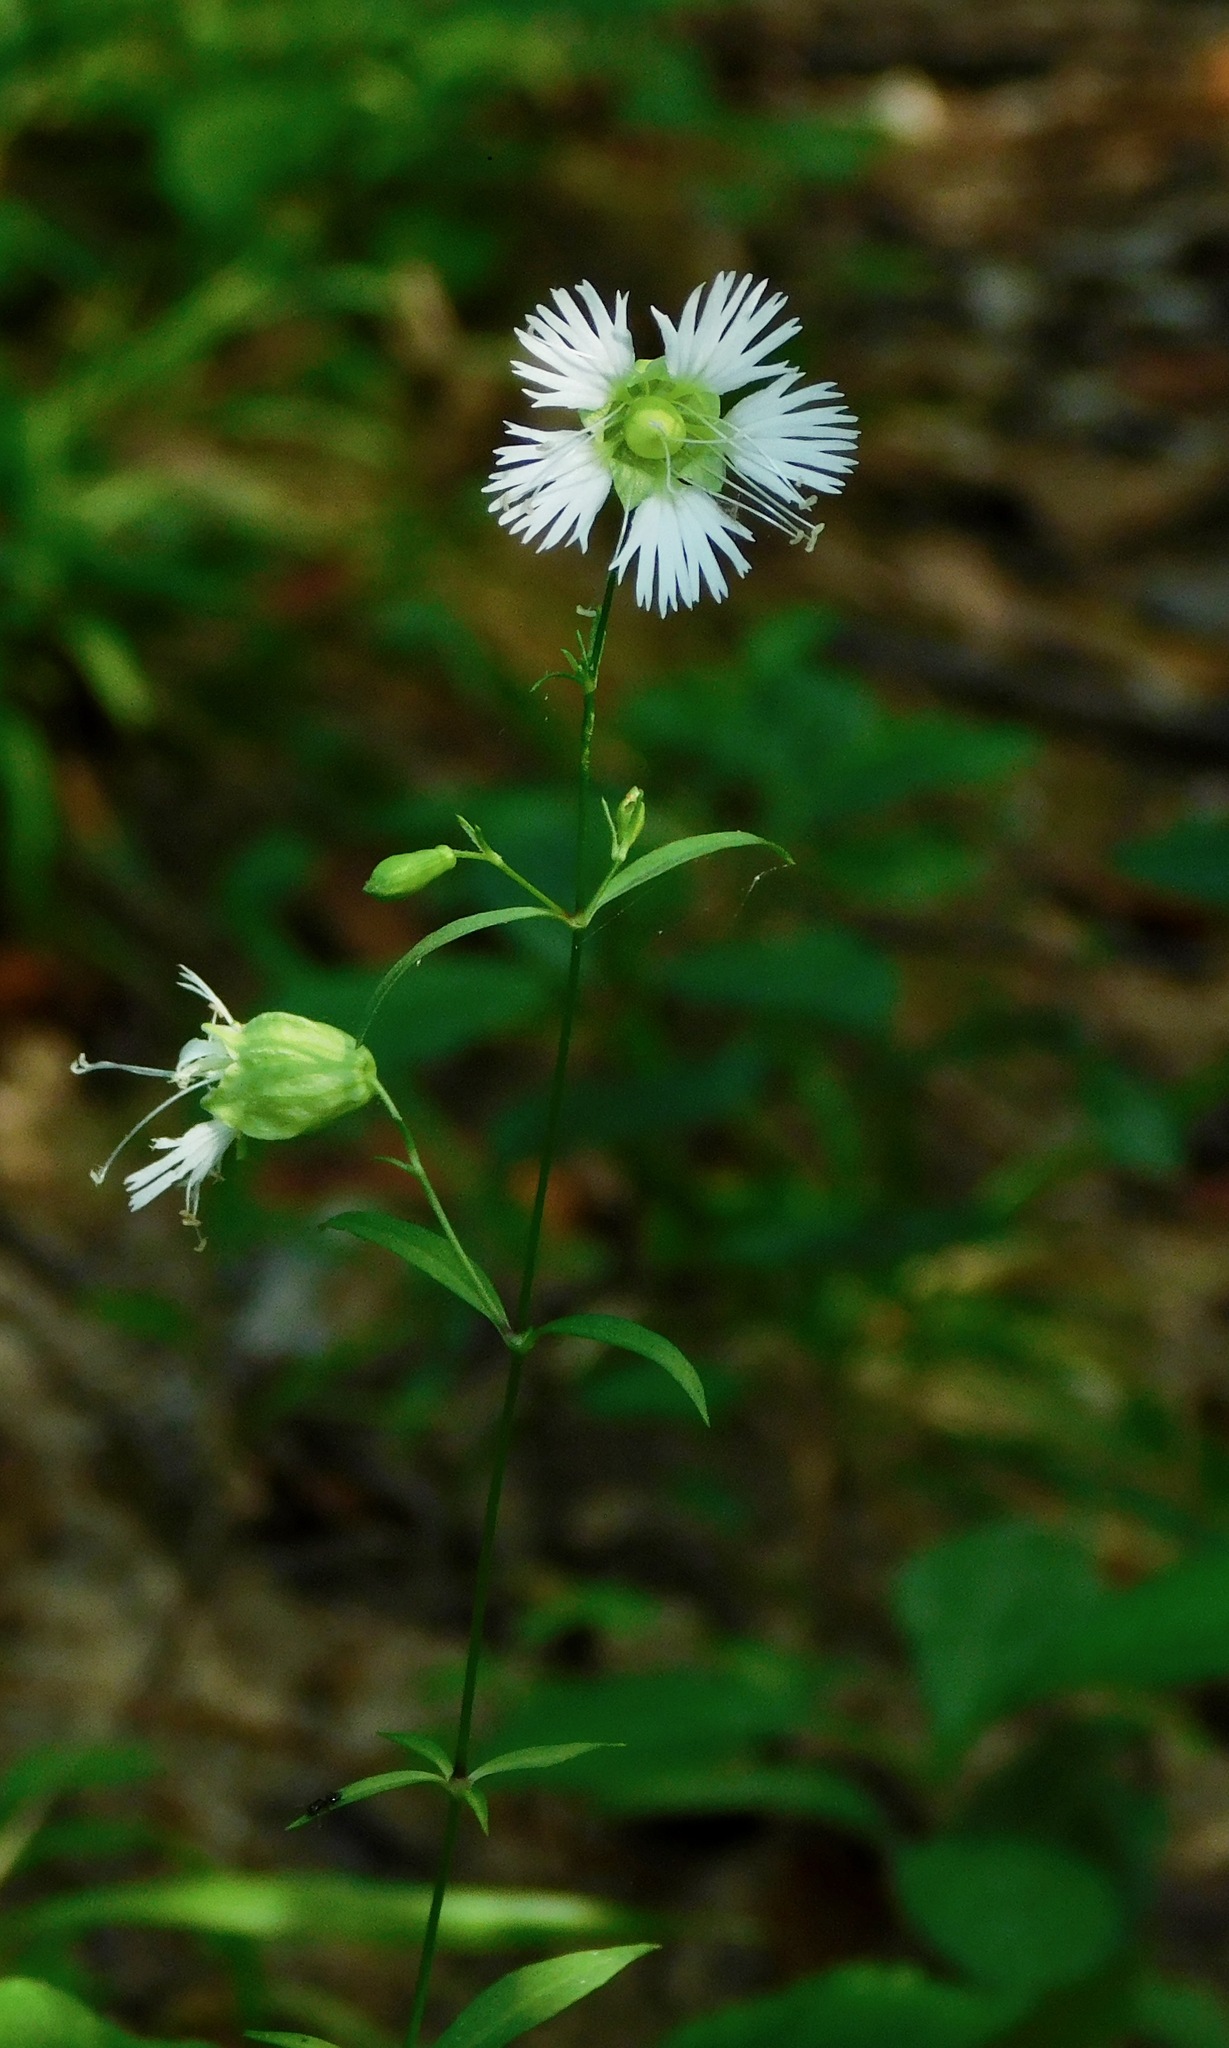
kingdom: Plantae
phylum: Tracheophyta
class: Magnoliopsida
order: Caryophyllales
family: Caryophyllaceae
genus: Silene
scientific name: Silene stellata
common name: Starry campion
